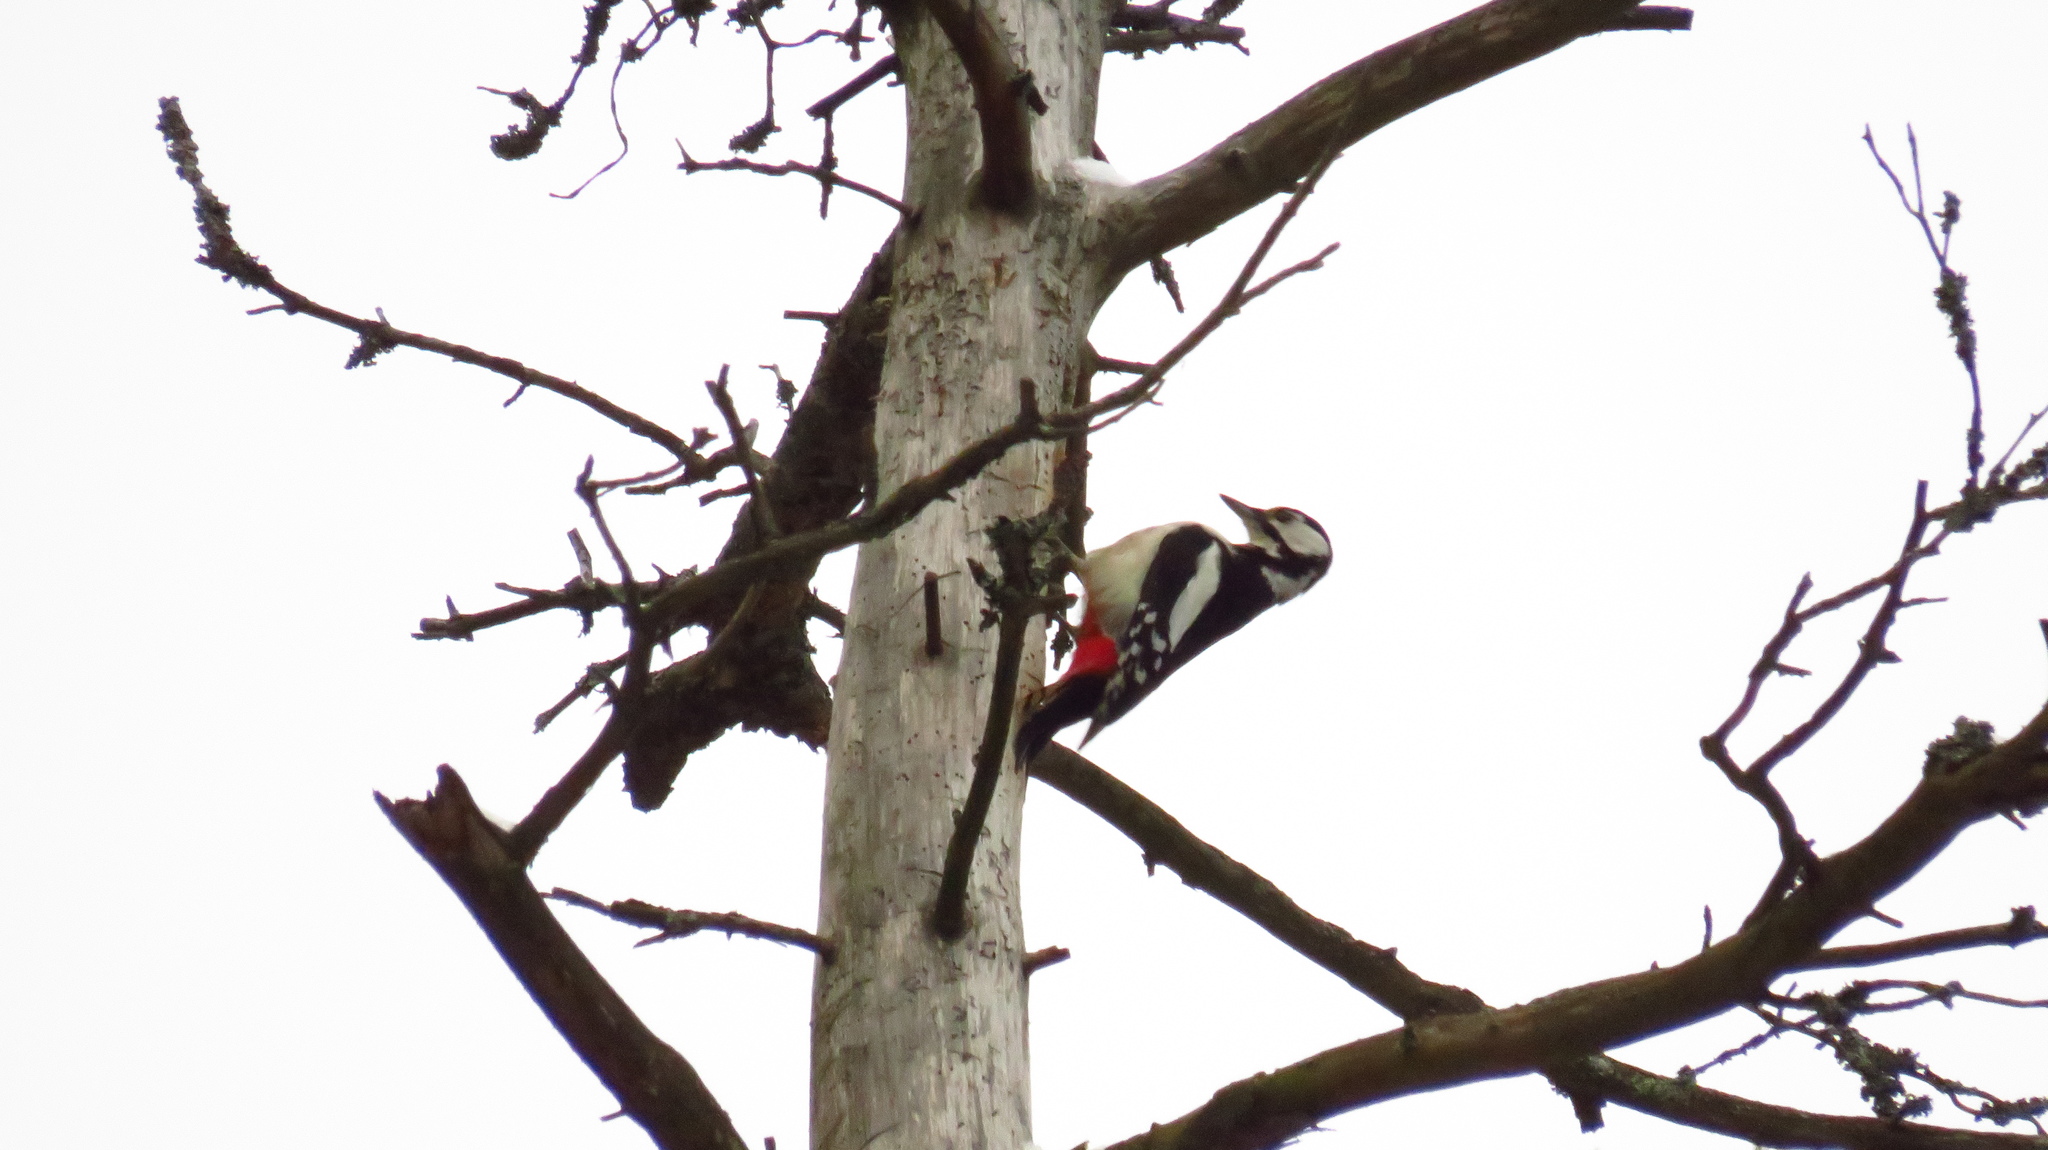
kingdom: Animalia
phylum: Chordata
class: Aves
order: Piciformes
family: Picidae
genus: Dendrocopos
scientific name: Dendrocopos major
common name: Great spotted woodpecker
